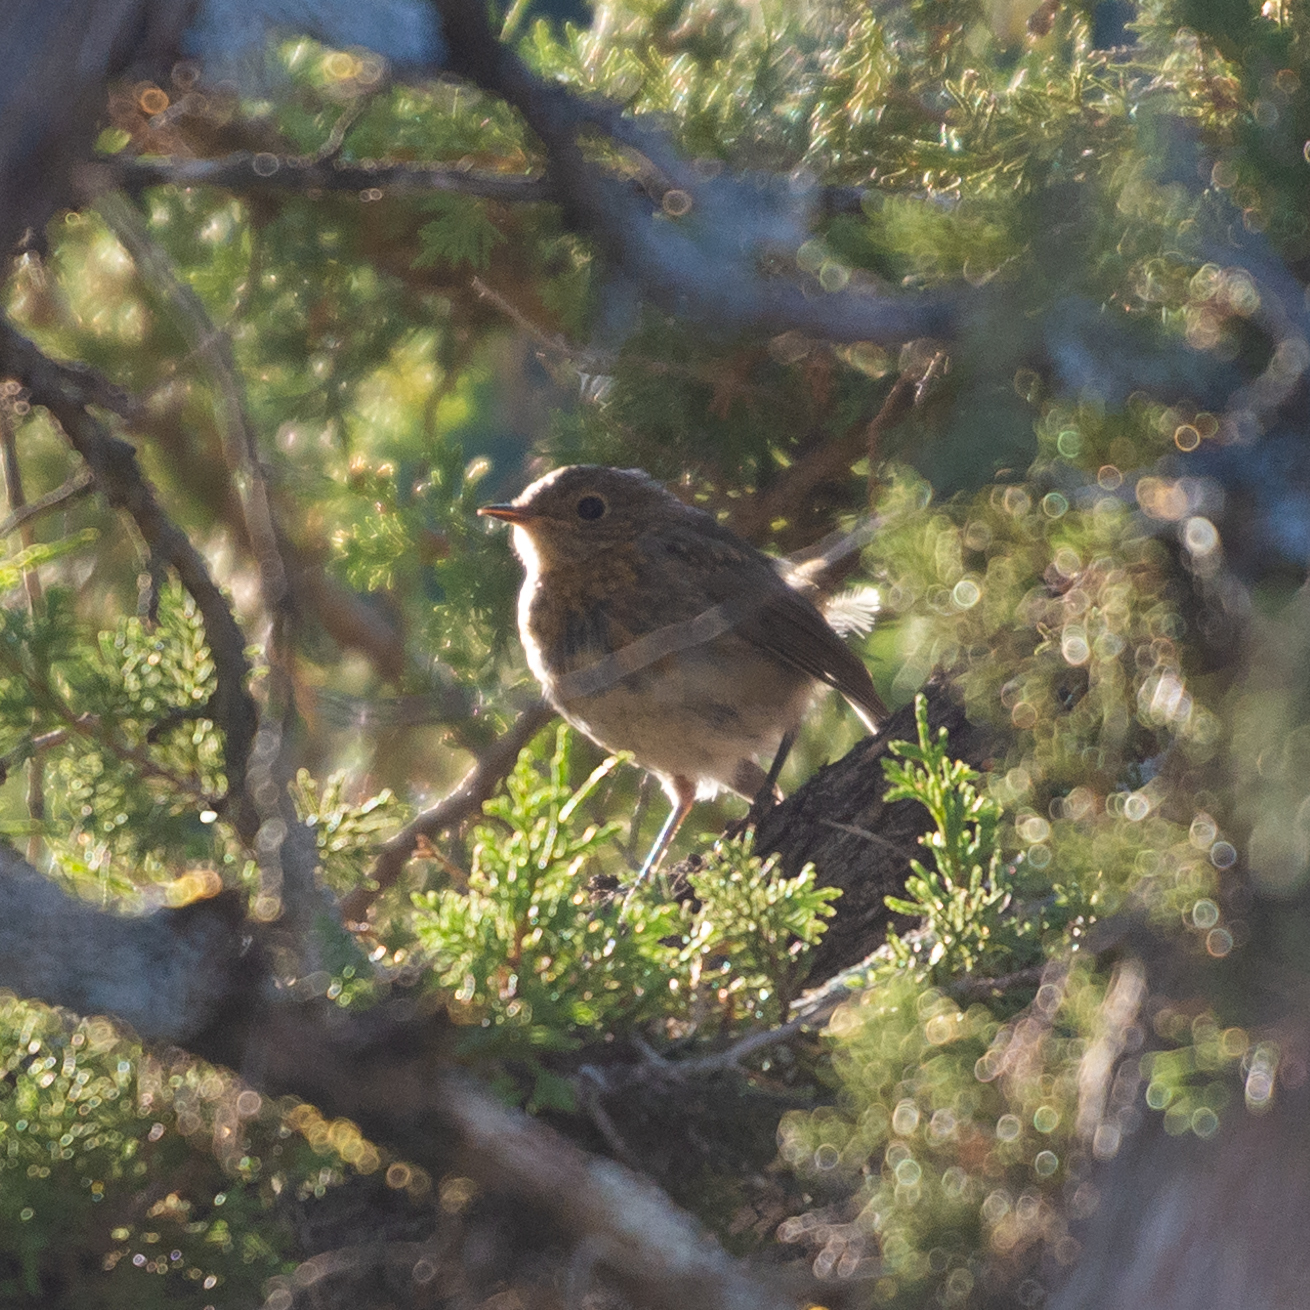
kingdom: Animalia
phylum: Chordata
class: Aves
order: Passeriformes
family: Muscicapidae
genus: Erithacus
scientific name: Erithacus rubecula
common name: European robin
